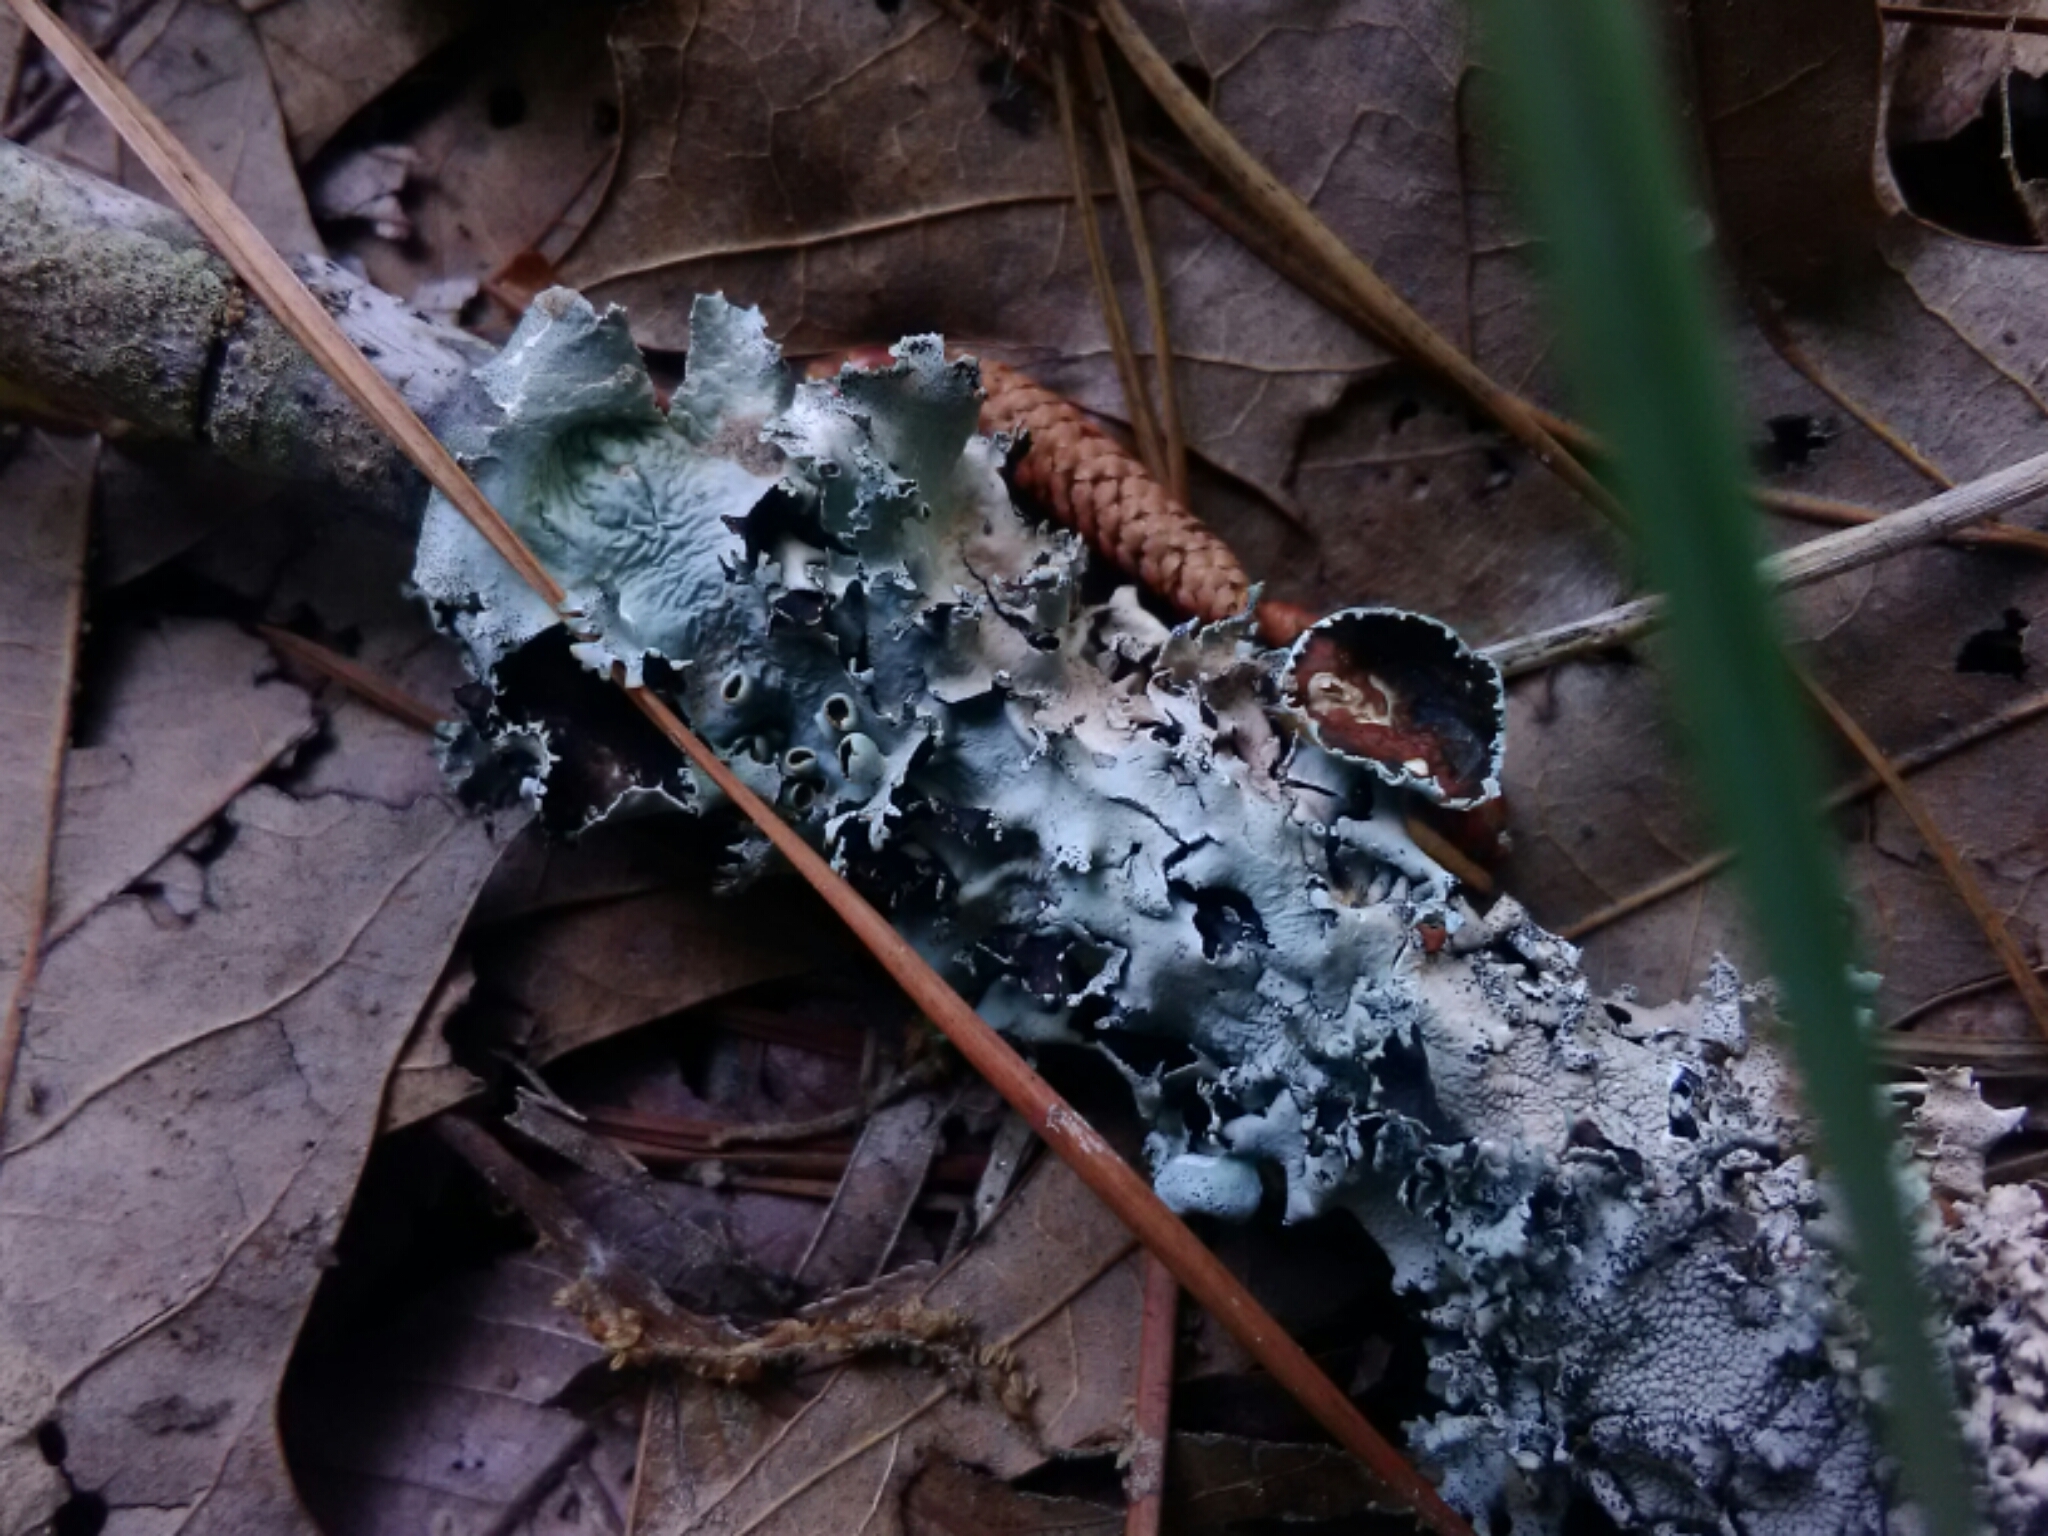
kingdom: Fungi
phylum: Ascomycota
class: Lecanoromycetes
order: Lecanorales
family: Parmeliaceae
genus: Parmotrema
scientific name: Parmotrema submarginale
